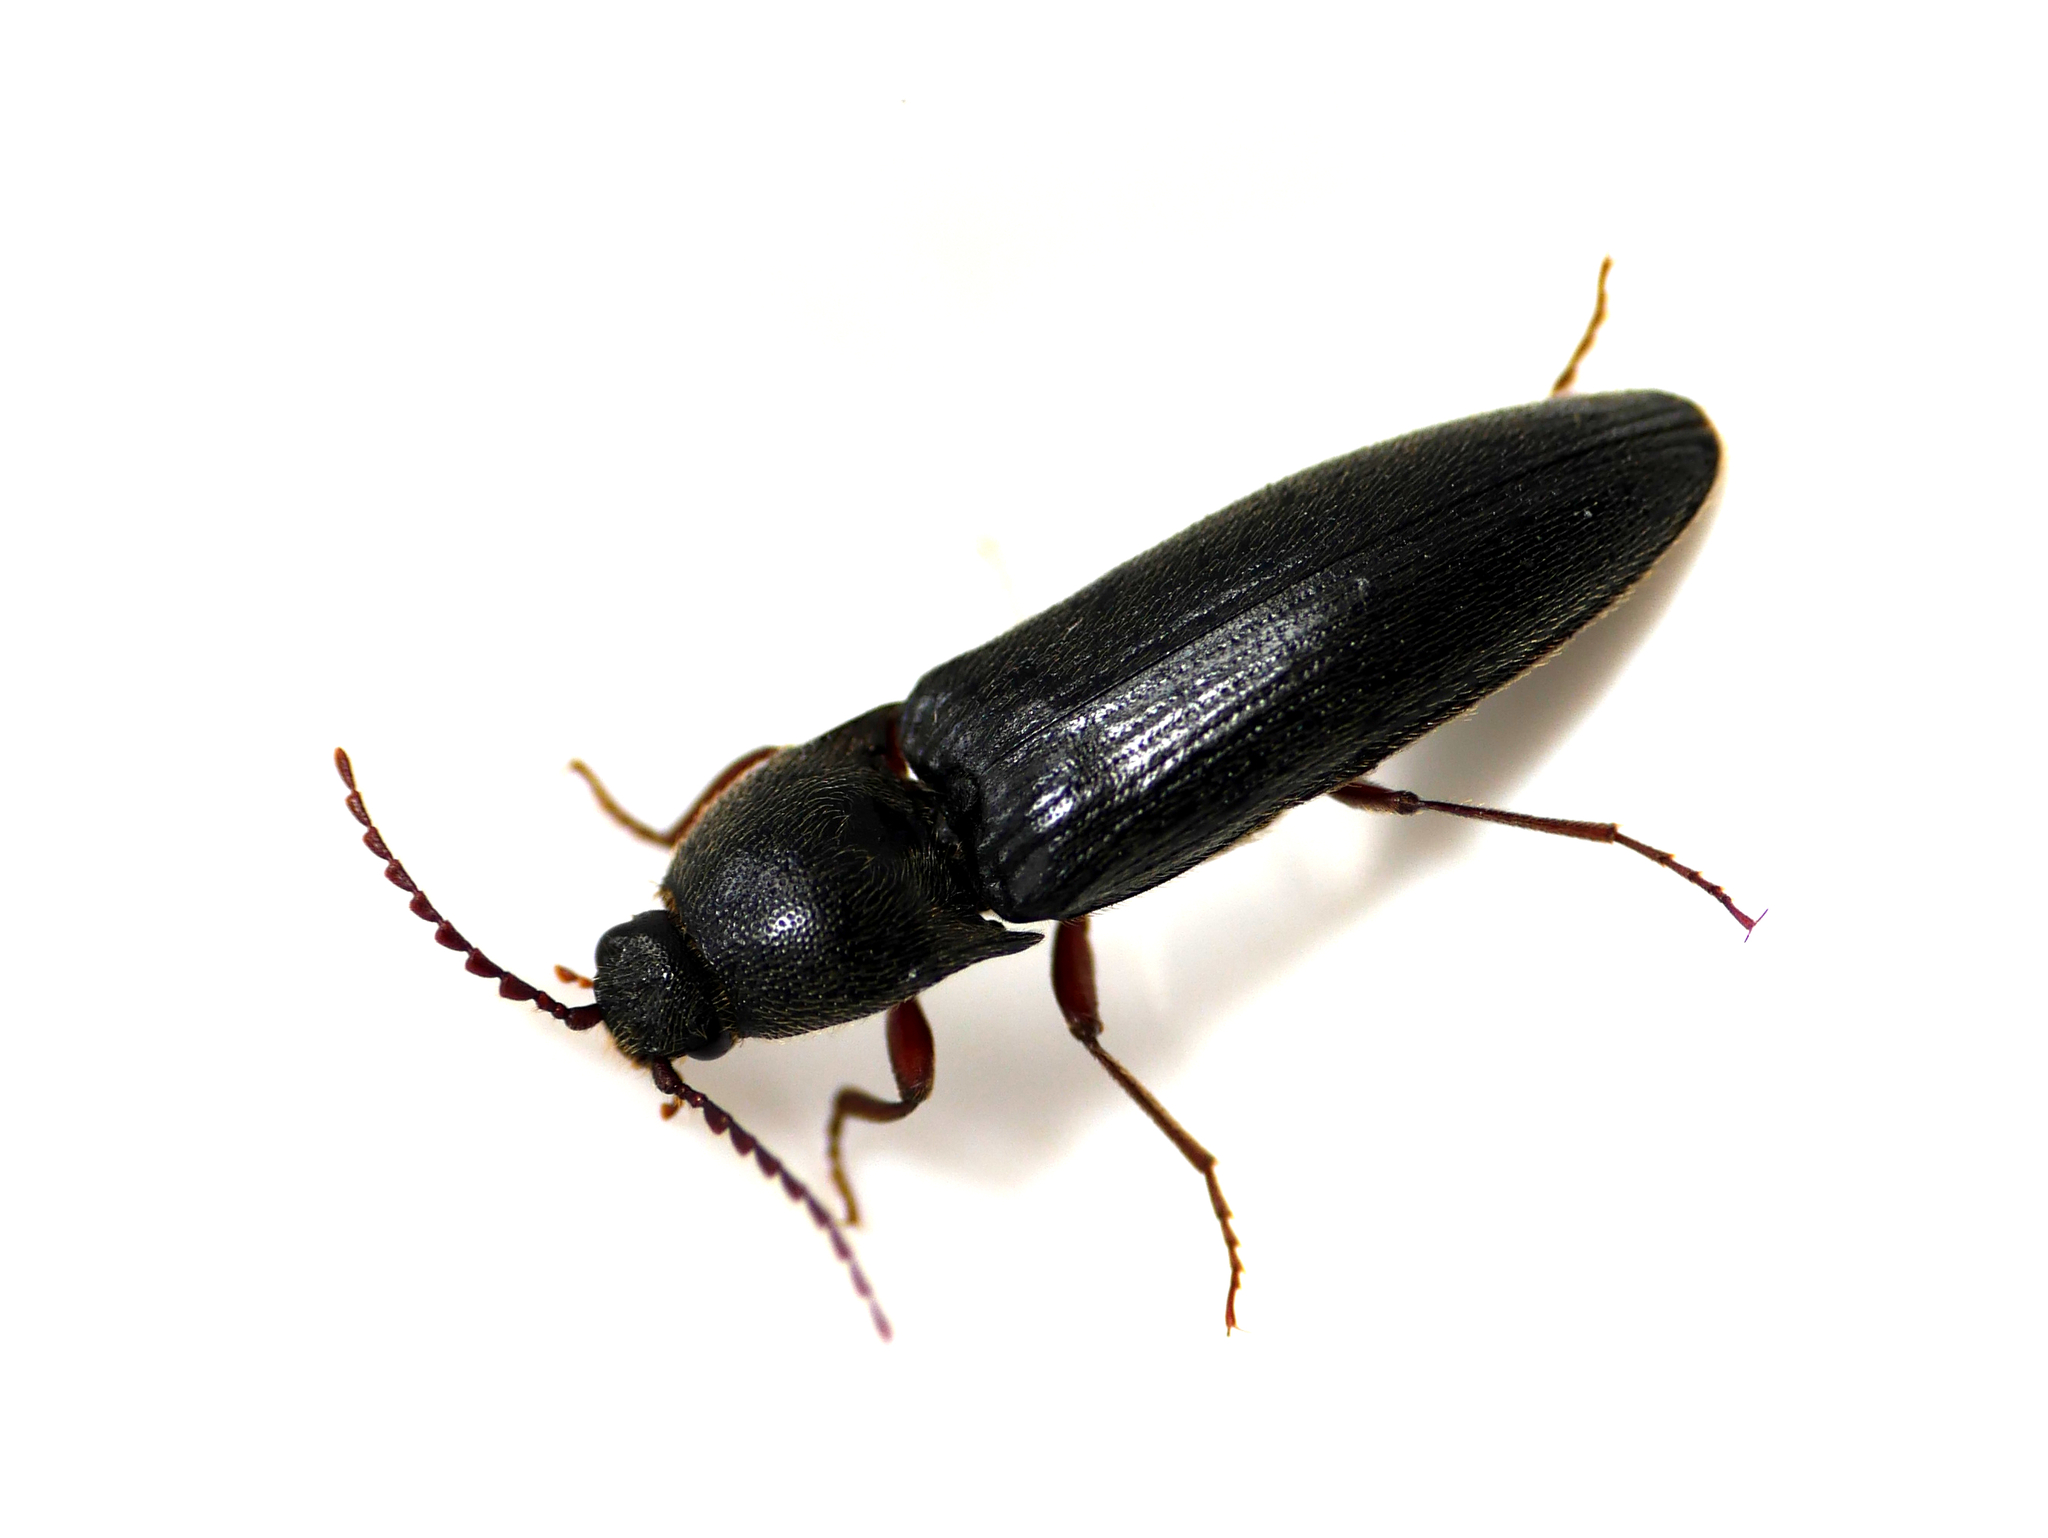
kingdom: Animalia
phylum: Arthropoda
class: Insecta
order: Coleoptera
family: Elateridae
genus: Melanotus
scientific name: Melanotus castanipes
